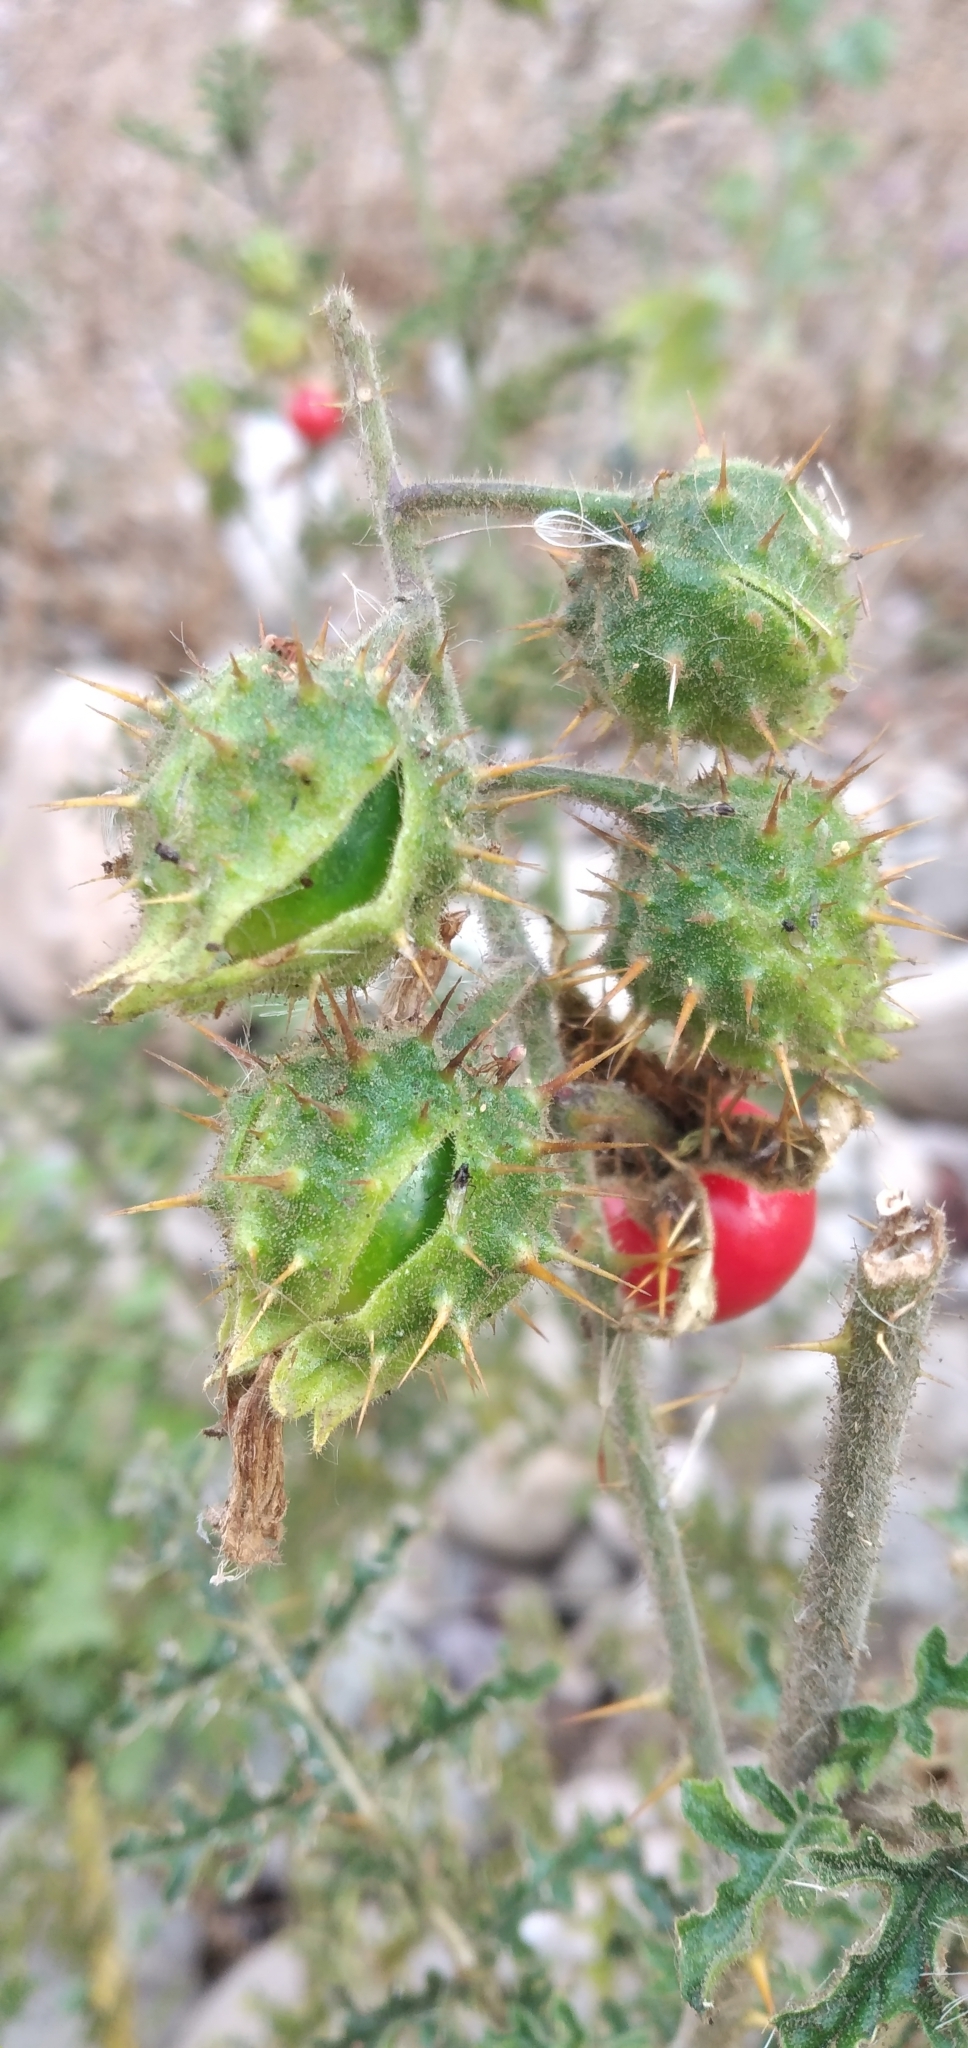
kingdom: Plantae
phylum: Tracheophyta
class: Magnoliopsida
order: Solanales
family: Solanaceae
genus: Solanum
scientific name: Solanum sisymbriifolium
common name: Red buffalo-bur
